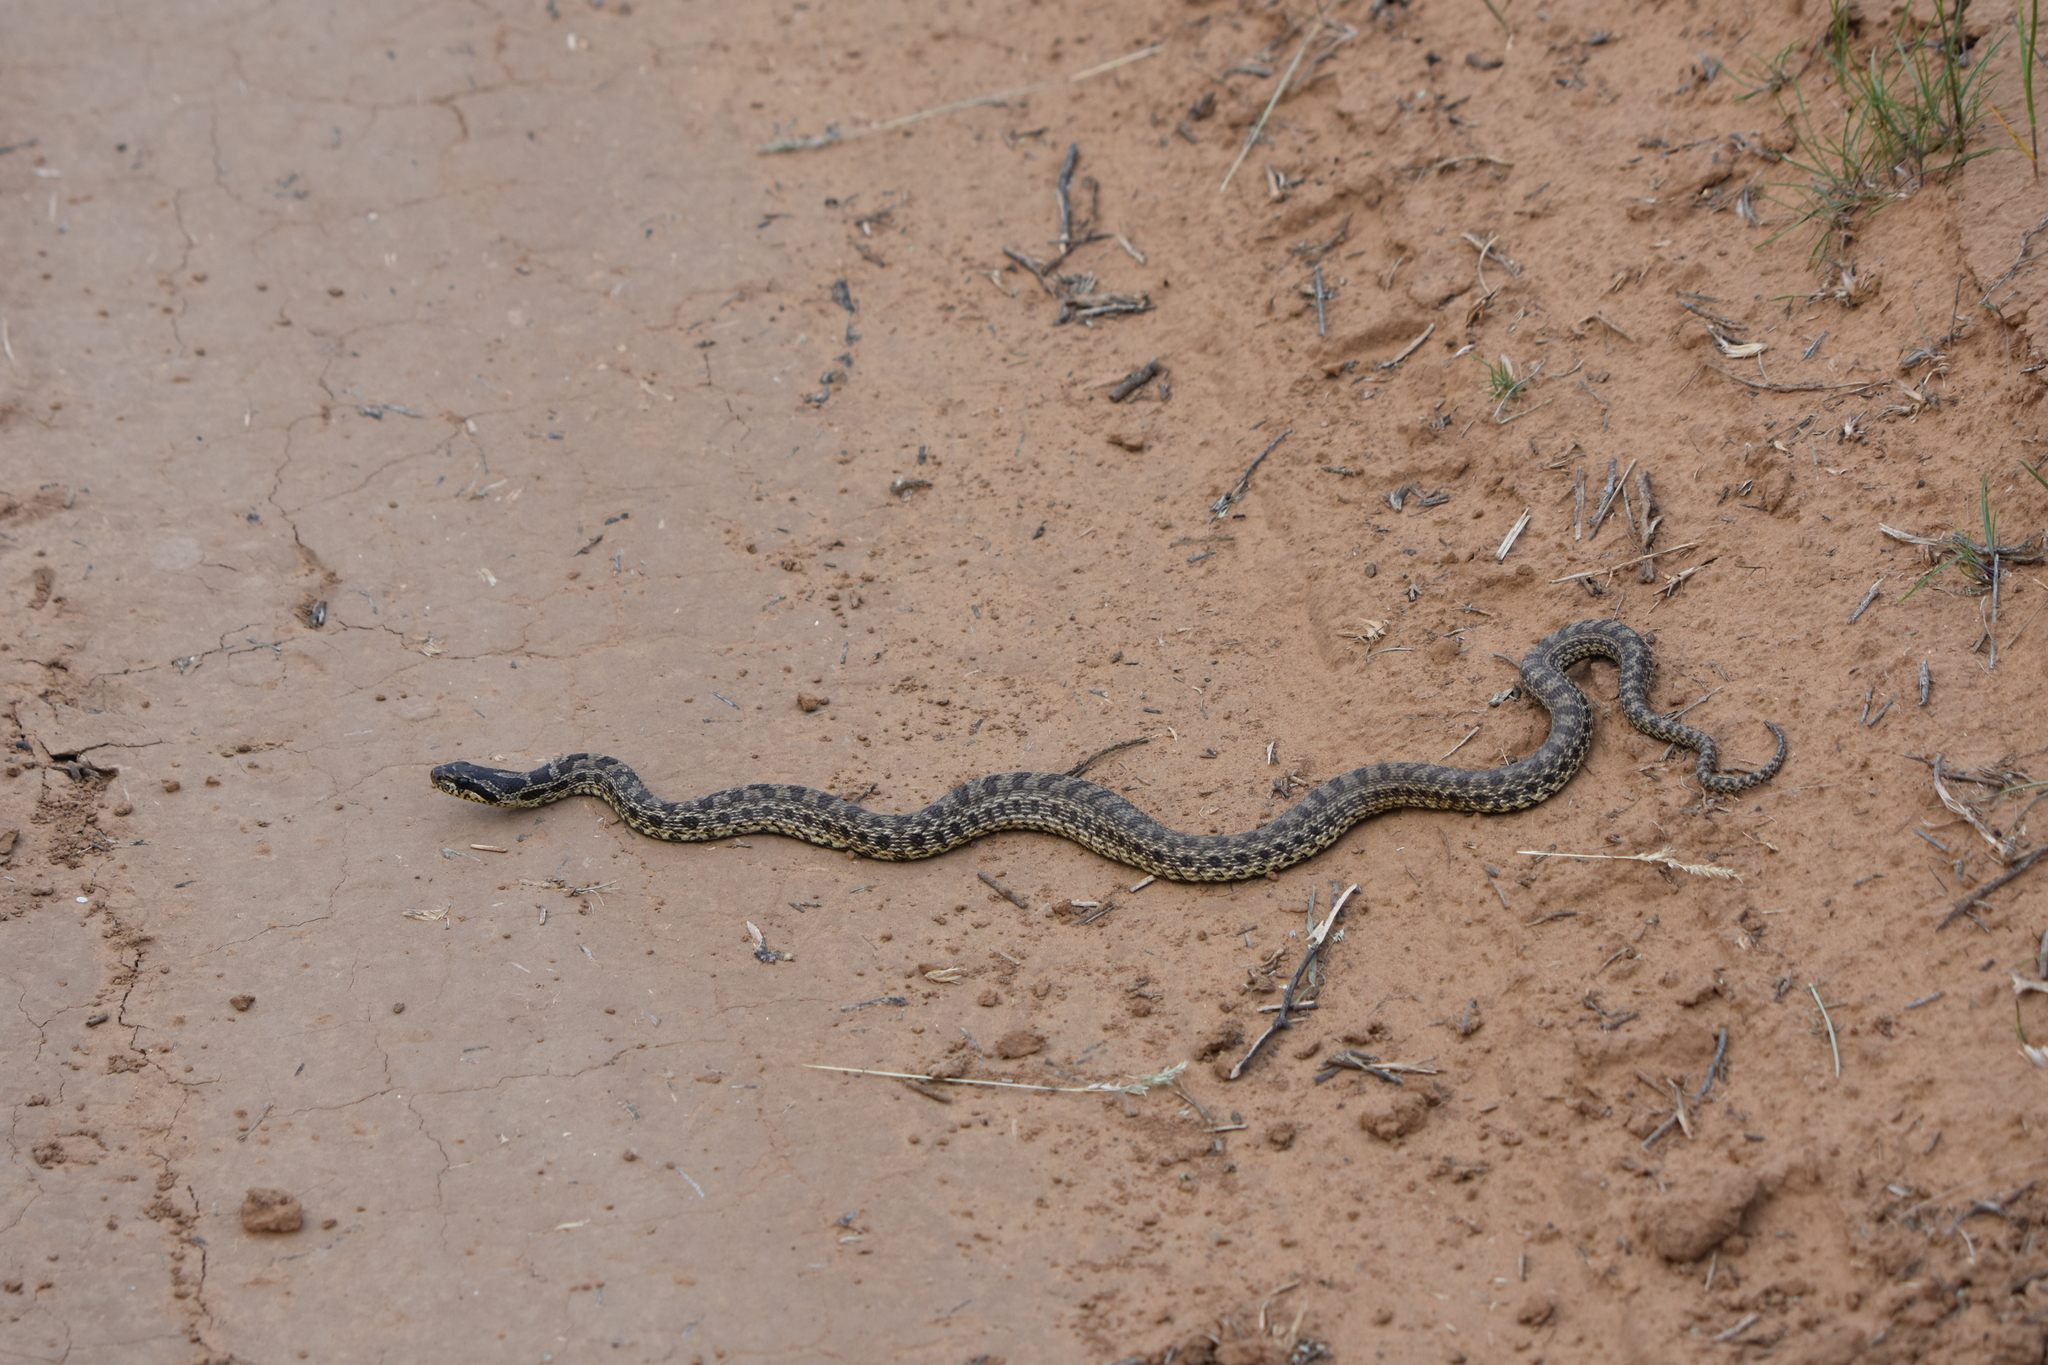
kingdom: Animalia
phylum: Chordata
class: Squamata
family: Colubridae
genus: Elaphe
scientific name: Elaphe sauromates
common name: Eastern four-lined ratsnake
